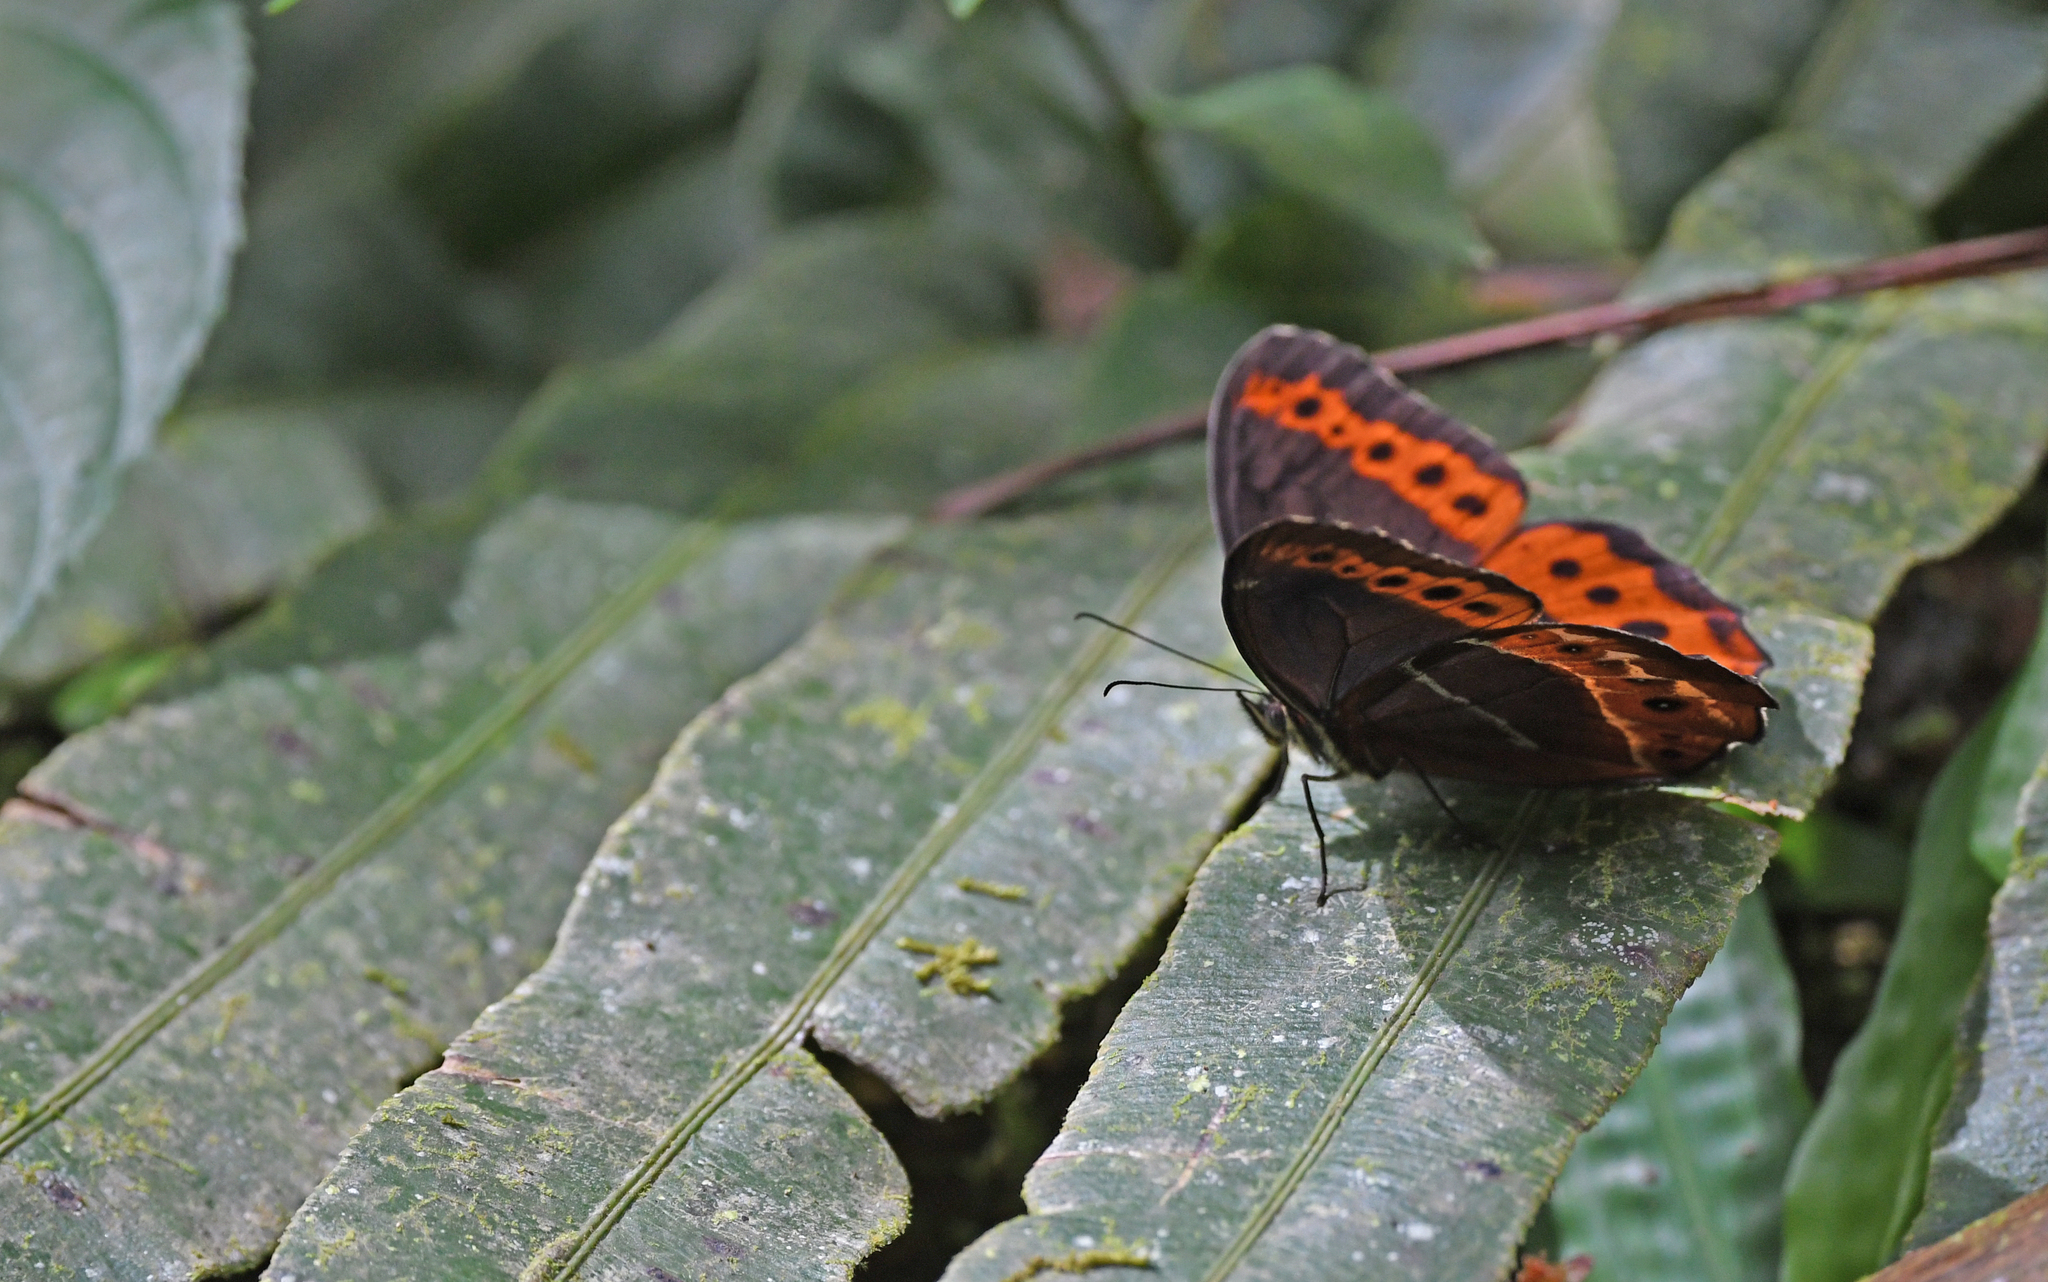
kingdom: Animalia
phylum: Arthropoda
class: Insecta
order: Lepidoptera
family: Nymphalidae
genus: Oxeoschistus
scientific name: Oxeoschistus puerta
